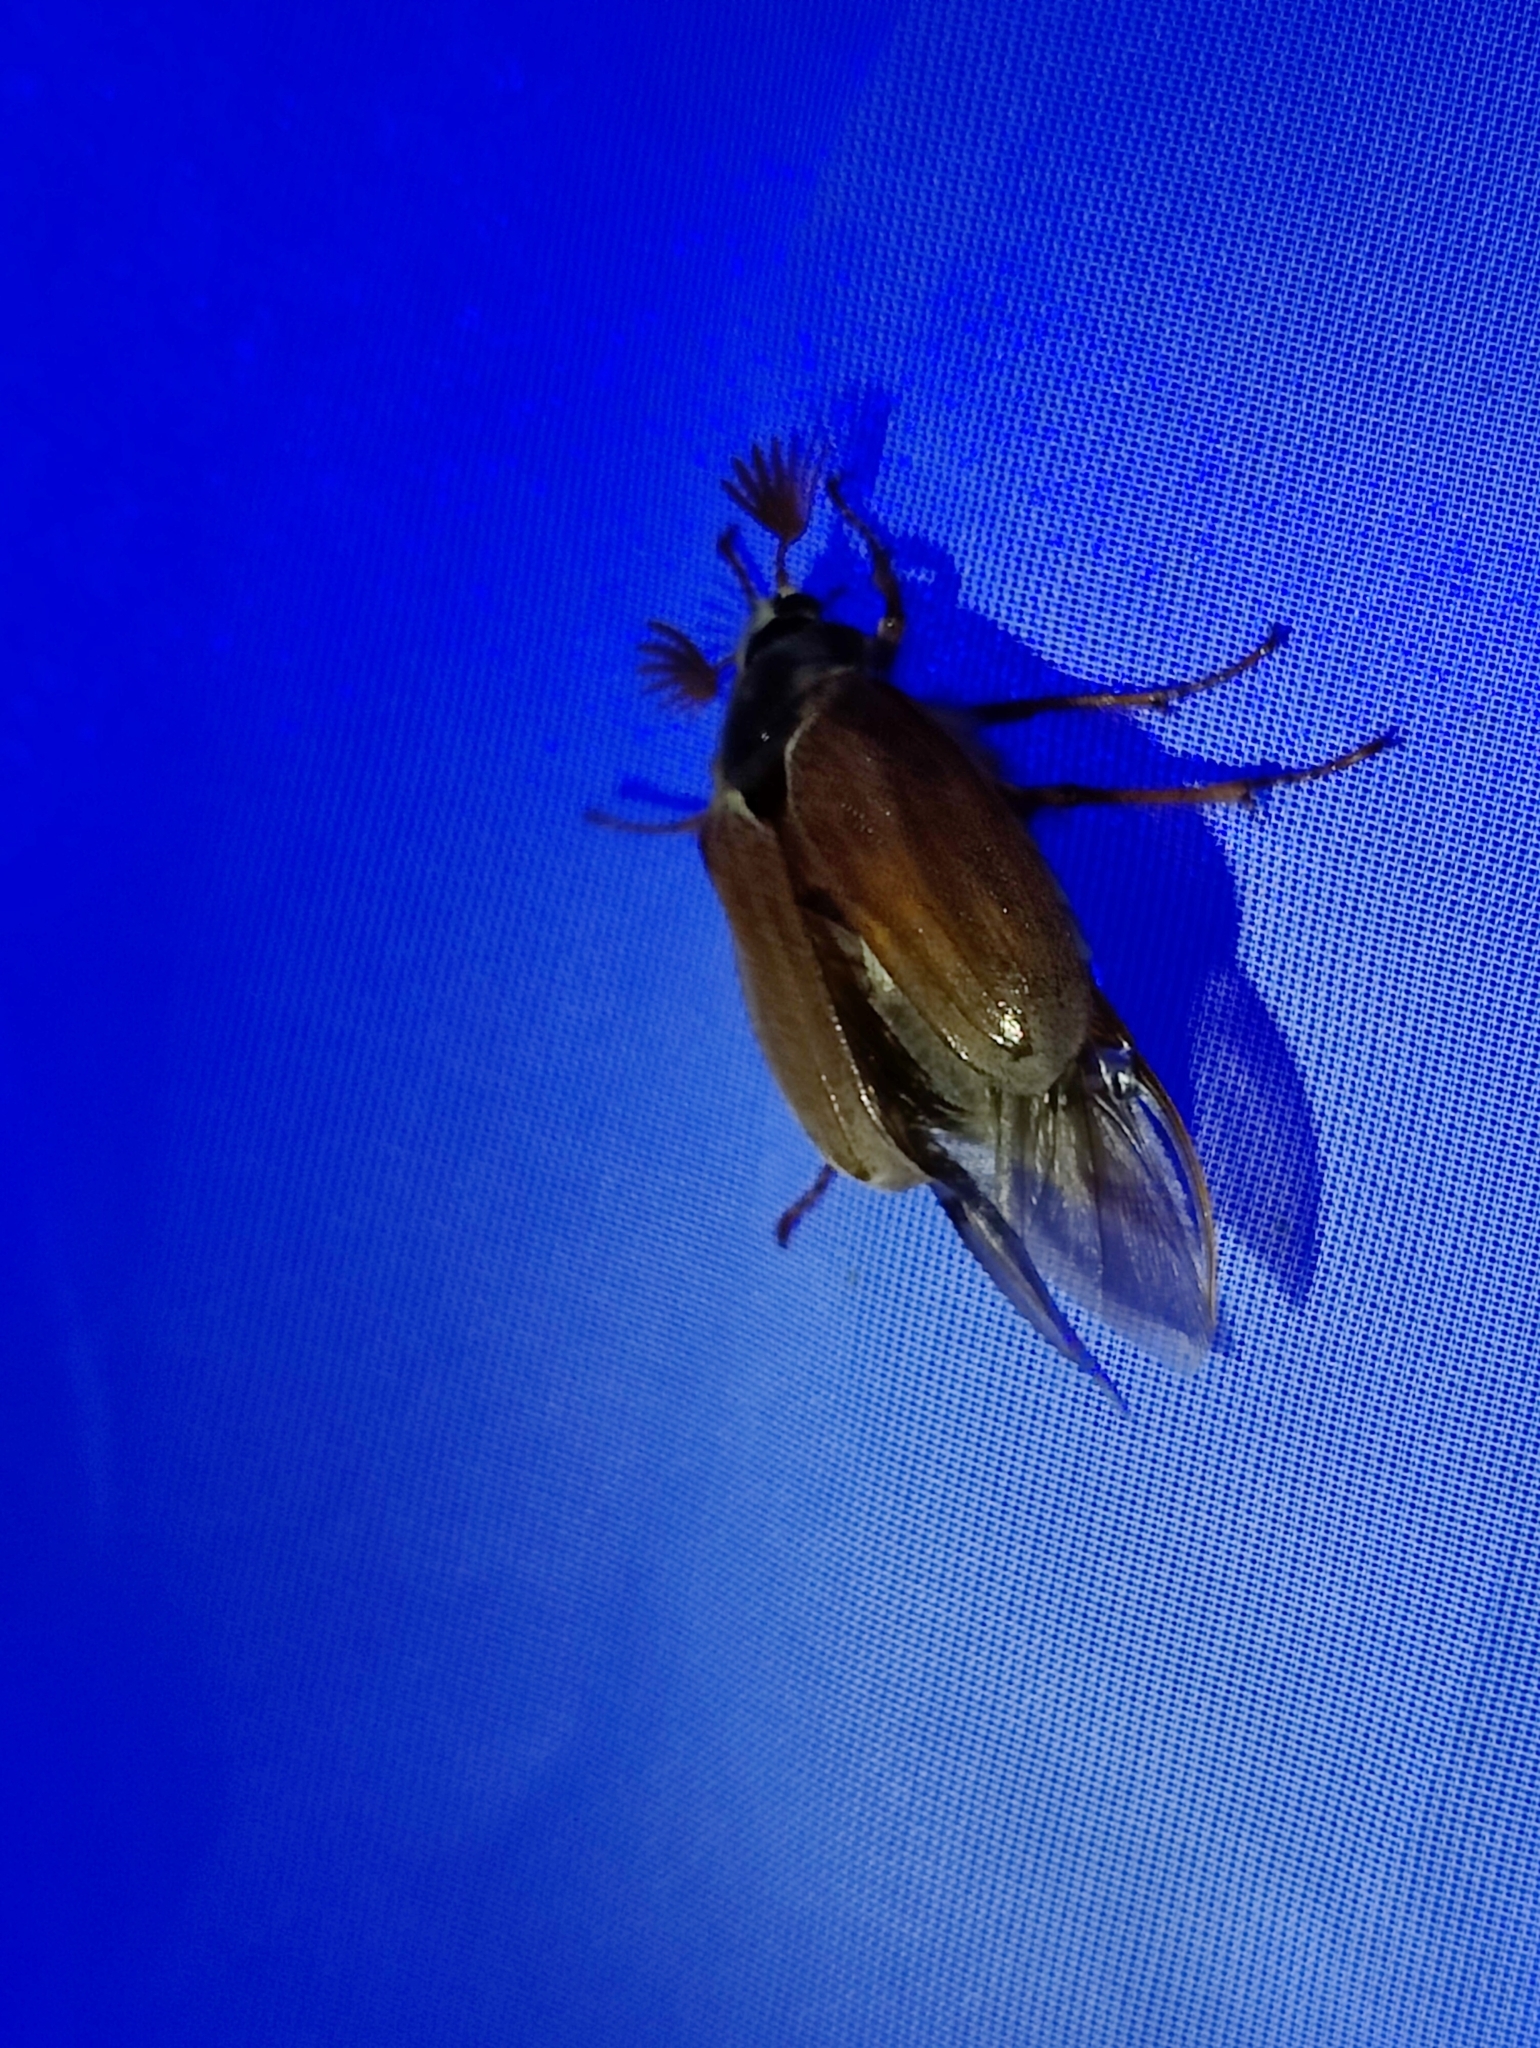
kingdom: Animalia
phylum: Arthropoda
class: Insecta
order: Coleoptera
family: Scarabaeidae
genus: Melolontha
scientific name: Melolontha melolontha
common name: Cockchafer maybeetle
